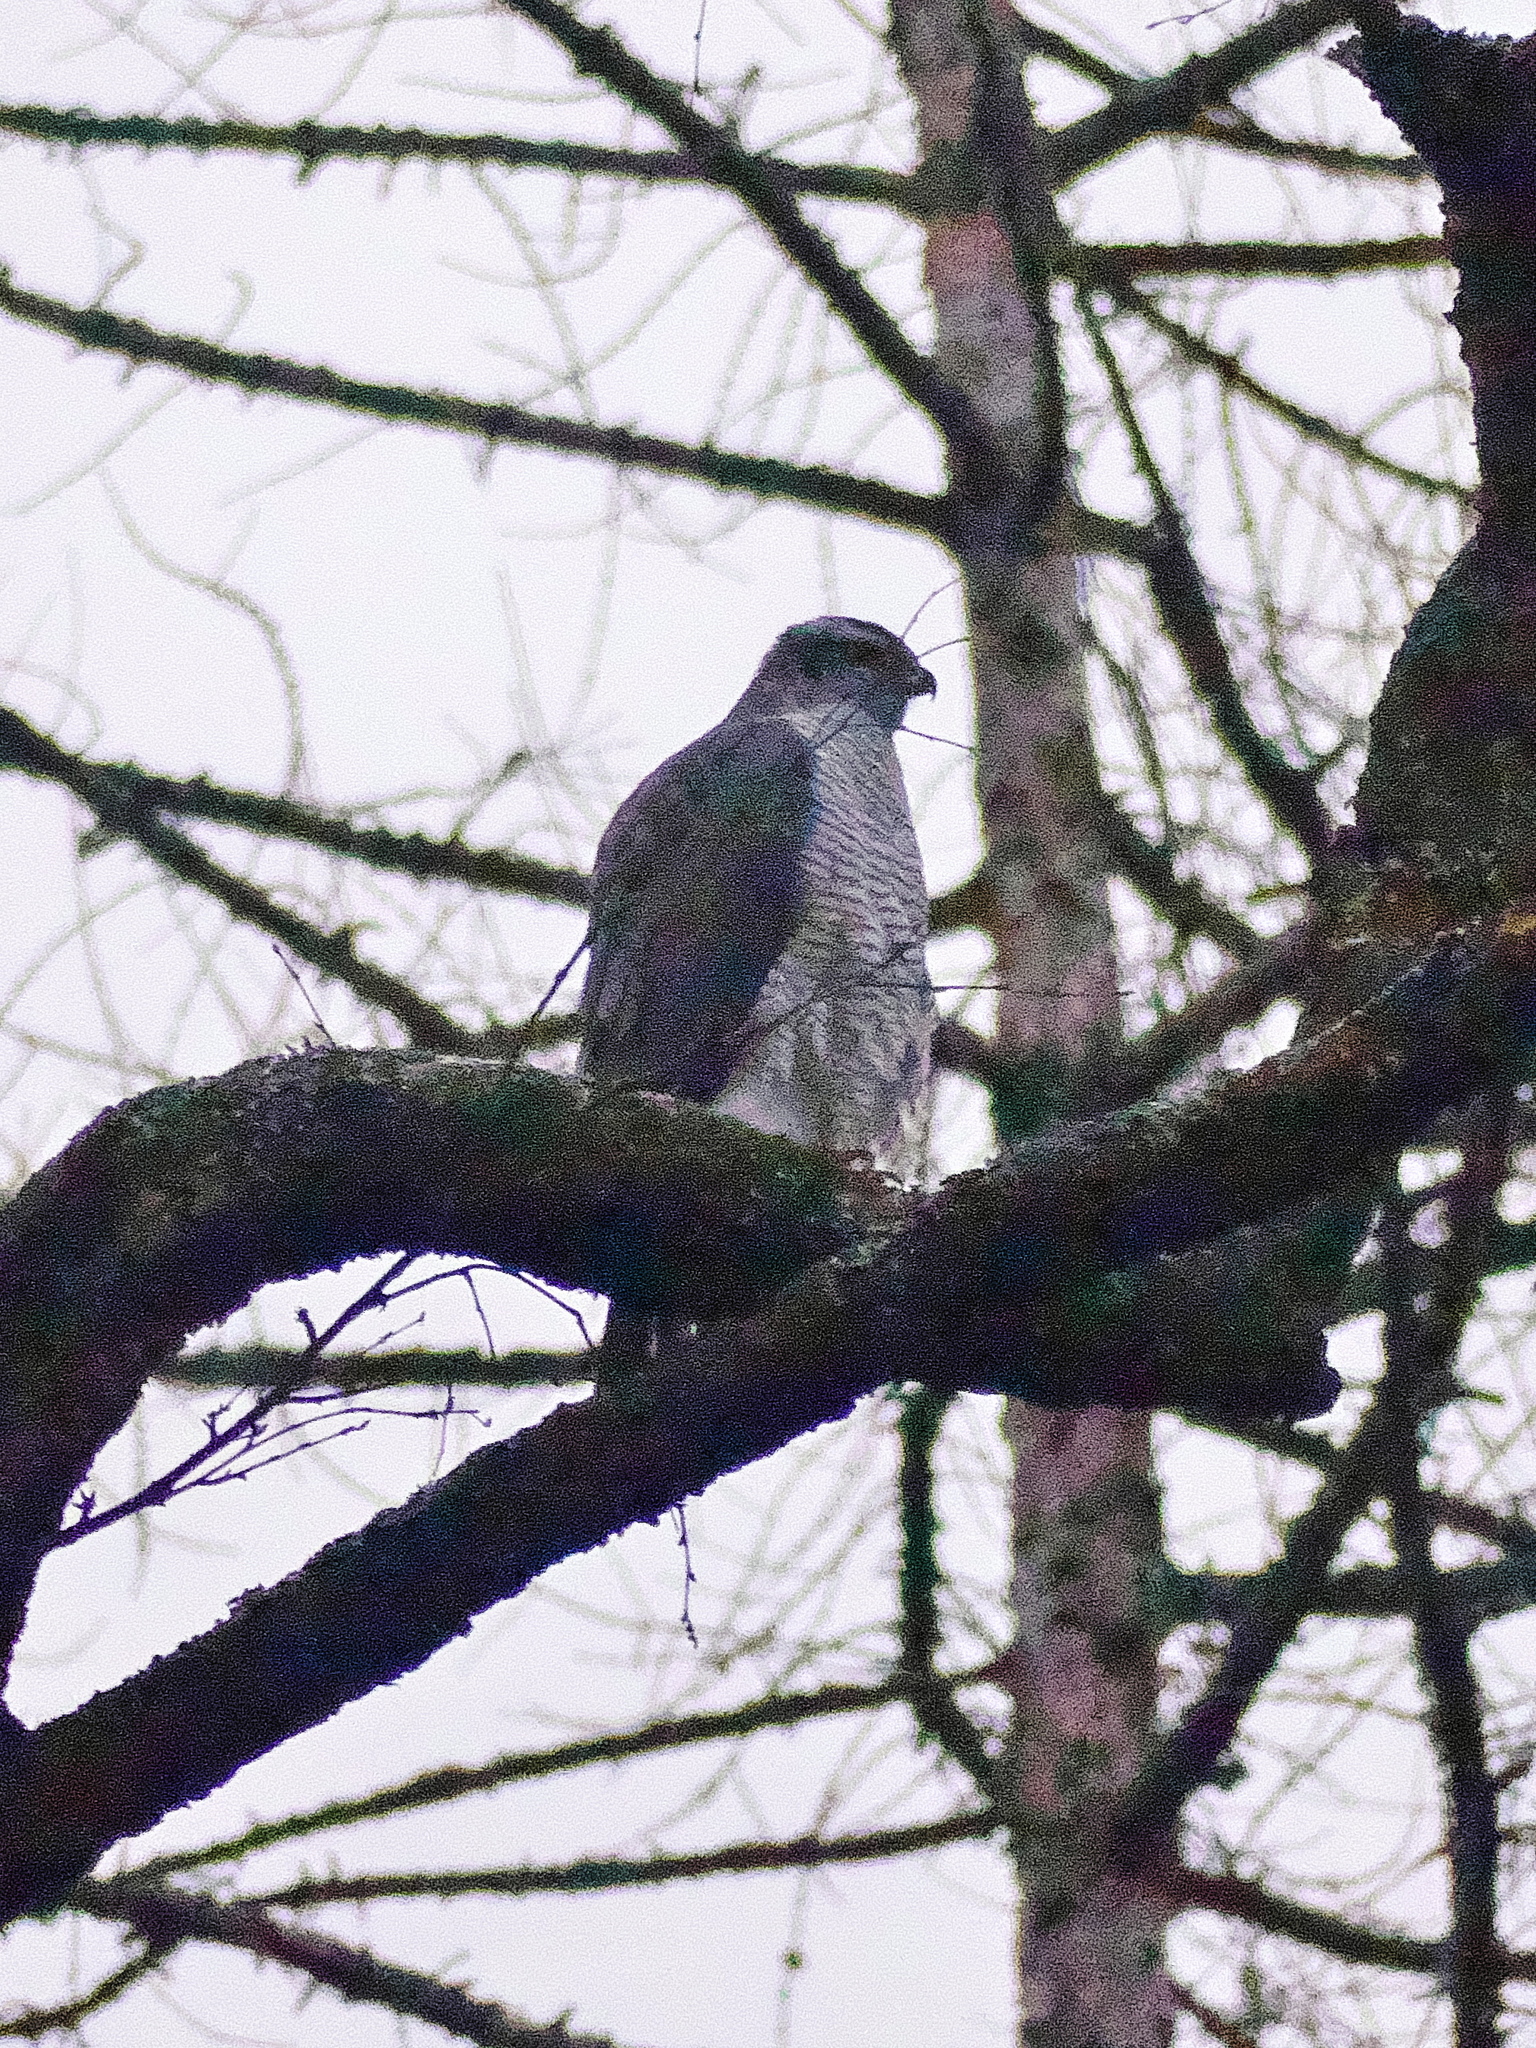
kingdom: Animalia
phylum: Chordata
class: Aves
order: Accipitriformes
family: Accipitridae
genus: Accipiter
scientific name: Accipiter gentilis
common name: Northern goshawk
